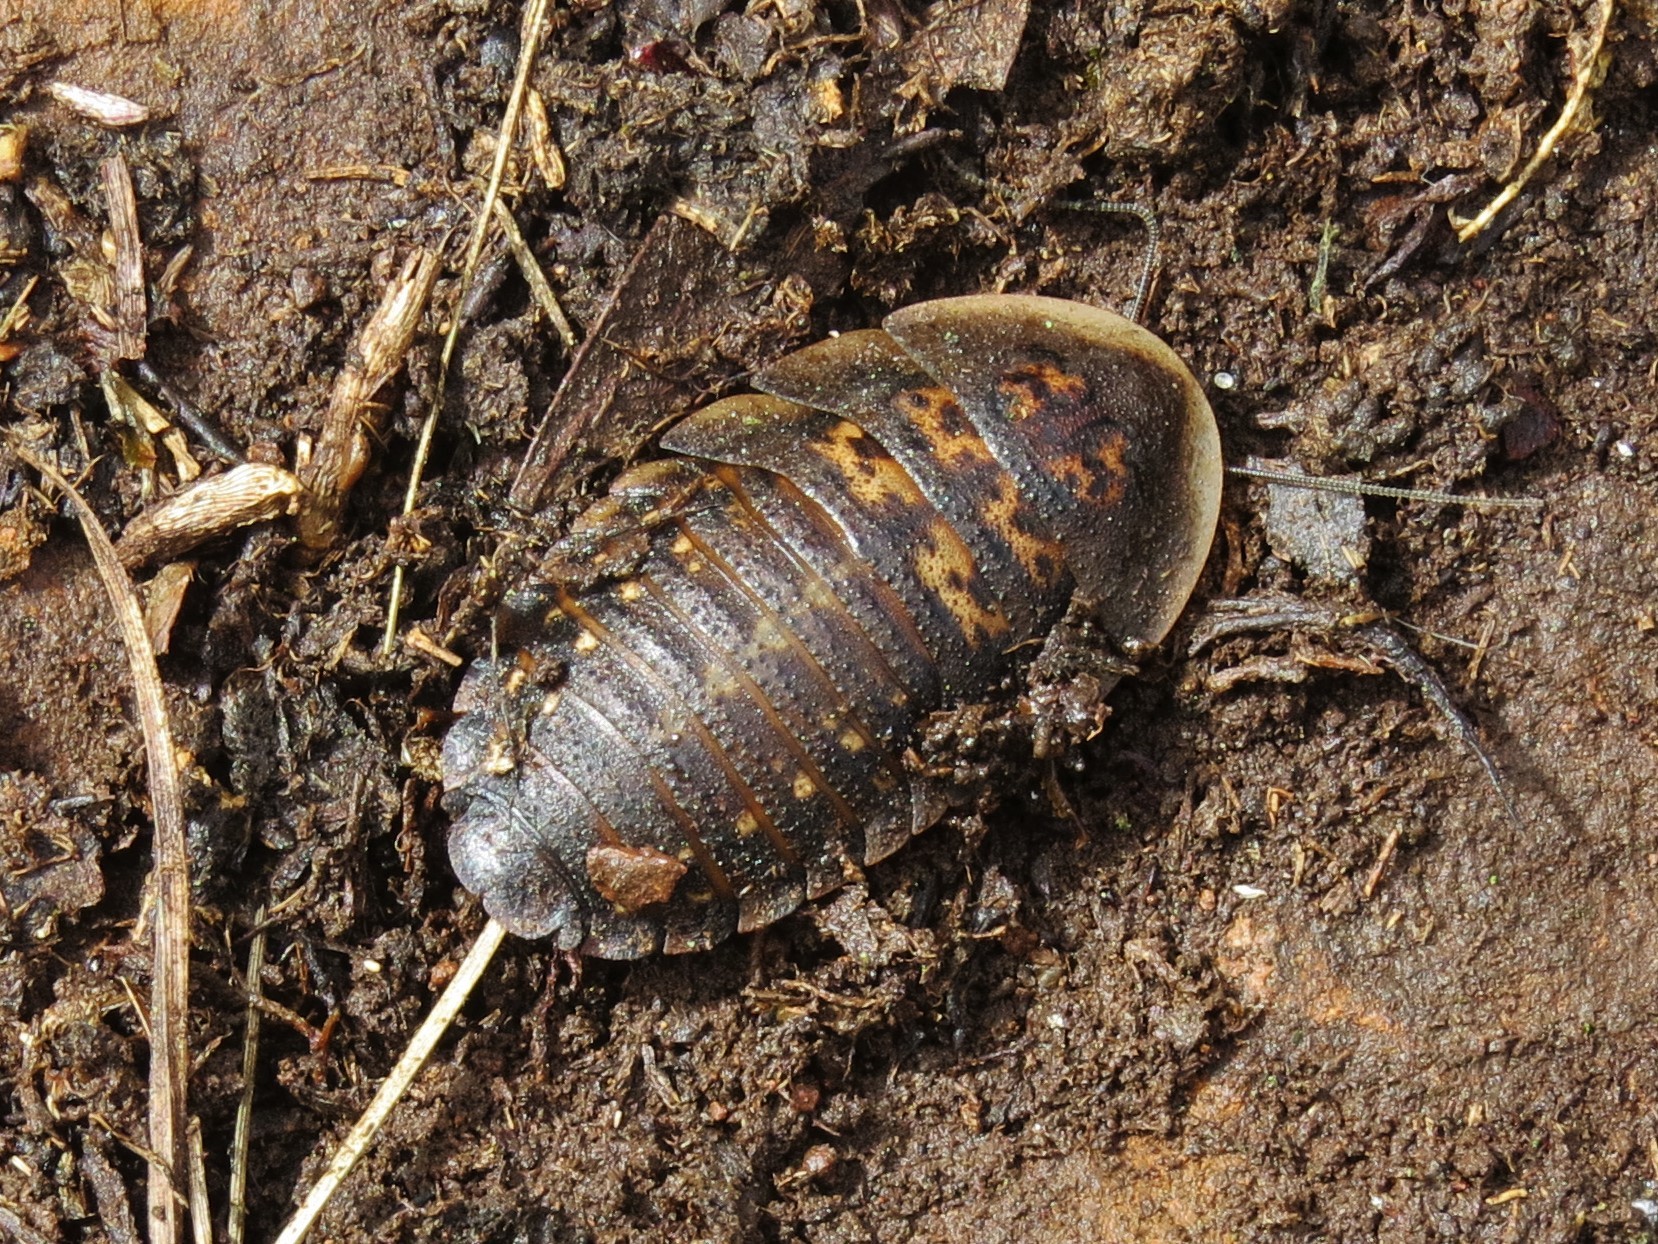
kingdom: Animalia
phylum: Arthropoda
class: Insecta
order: Blattodea
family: Blaberidae
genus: Blaptica
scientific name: Blaptica dubia
